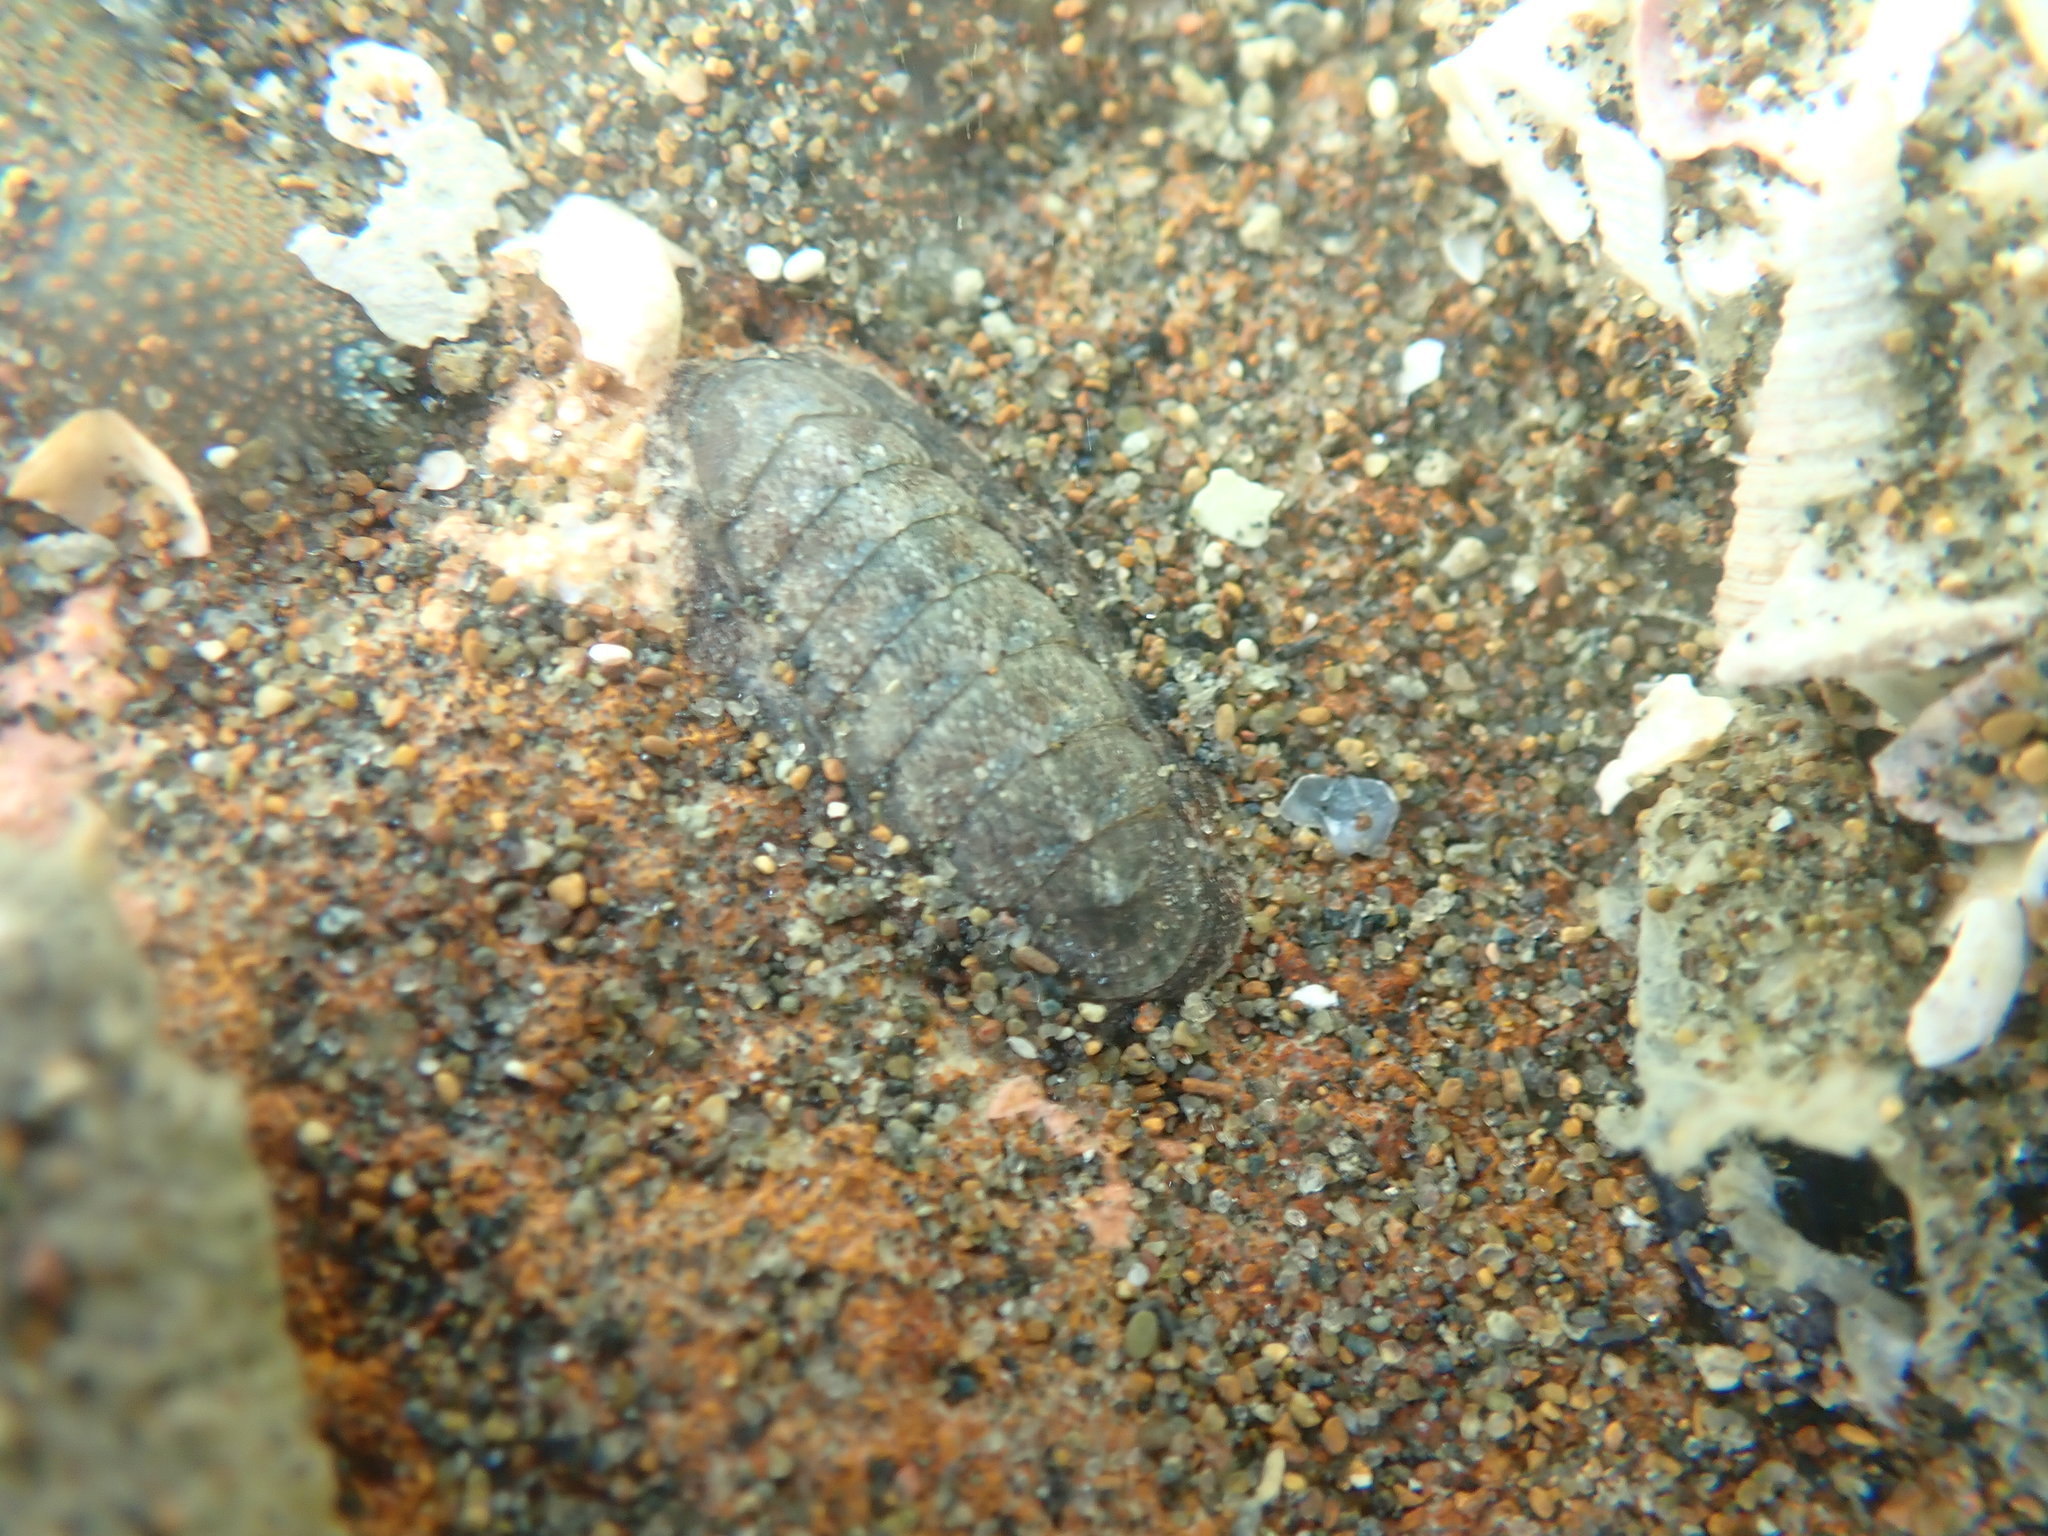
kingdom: Animalia
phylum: Mollusca
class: Polyplacophora
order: Chitonida
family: Ischnochitonidae
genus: Ischnochiton
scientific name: Ischnochiton maorianus
